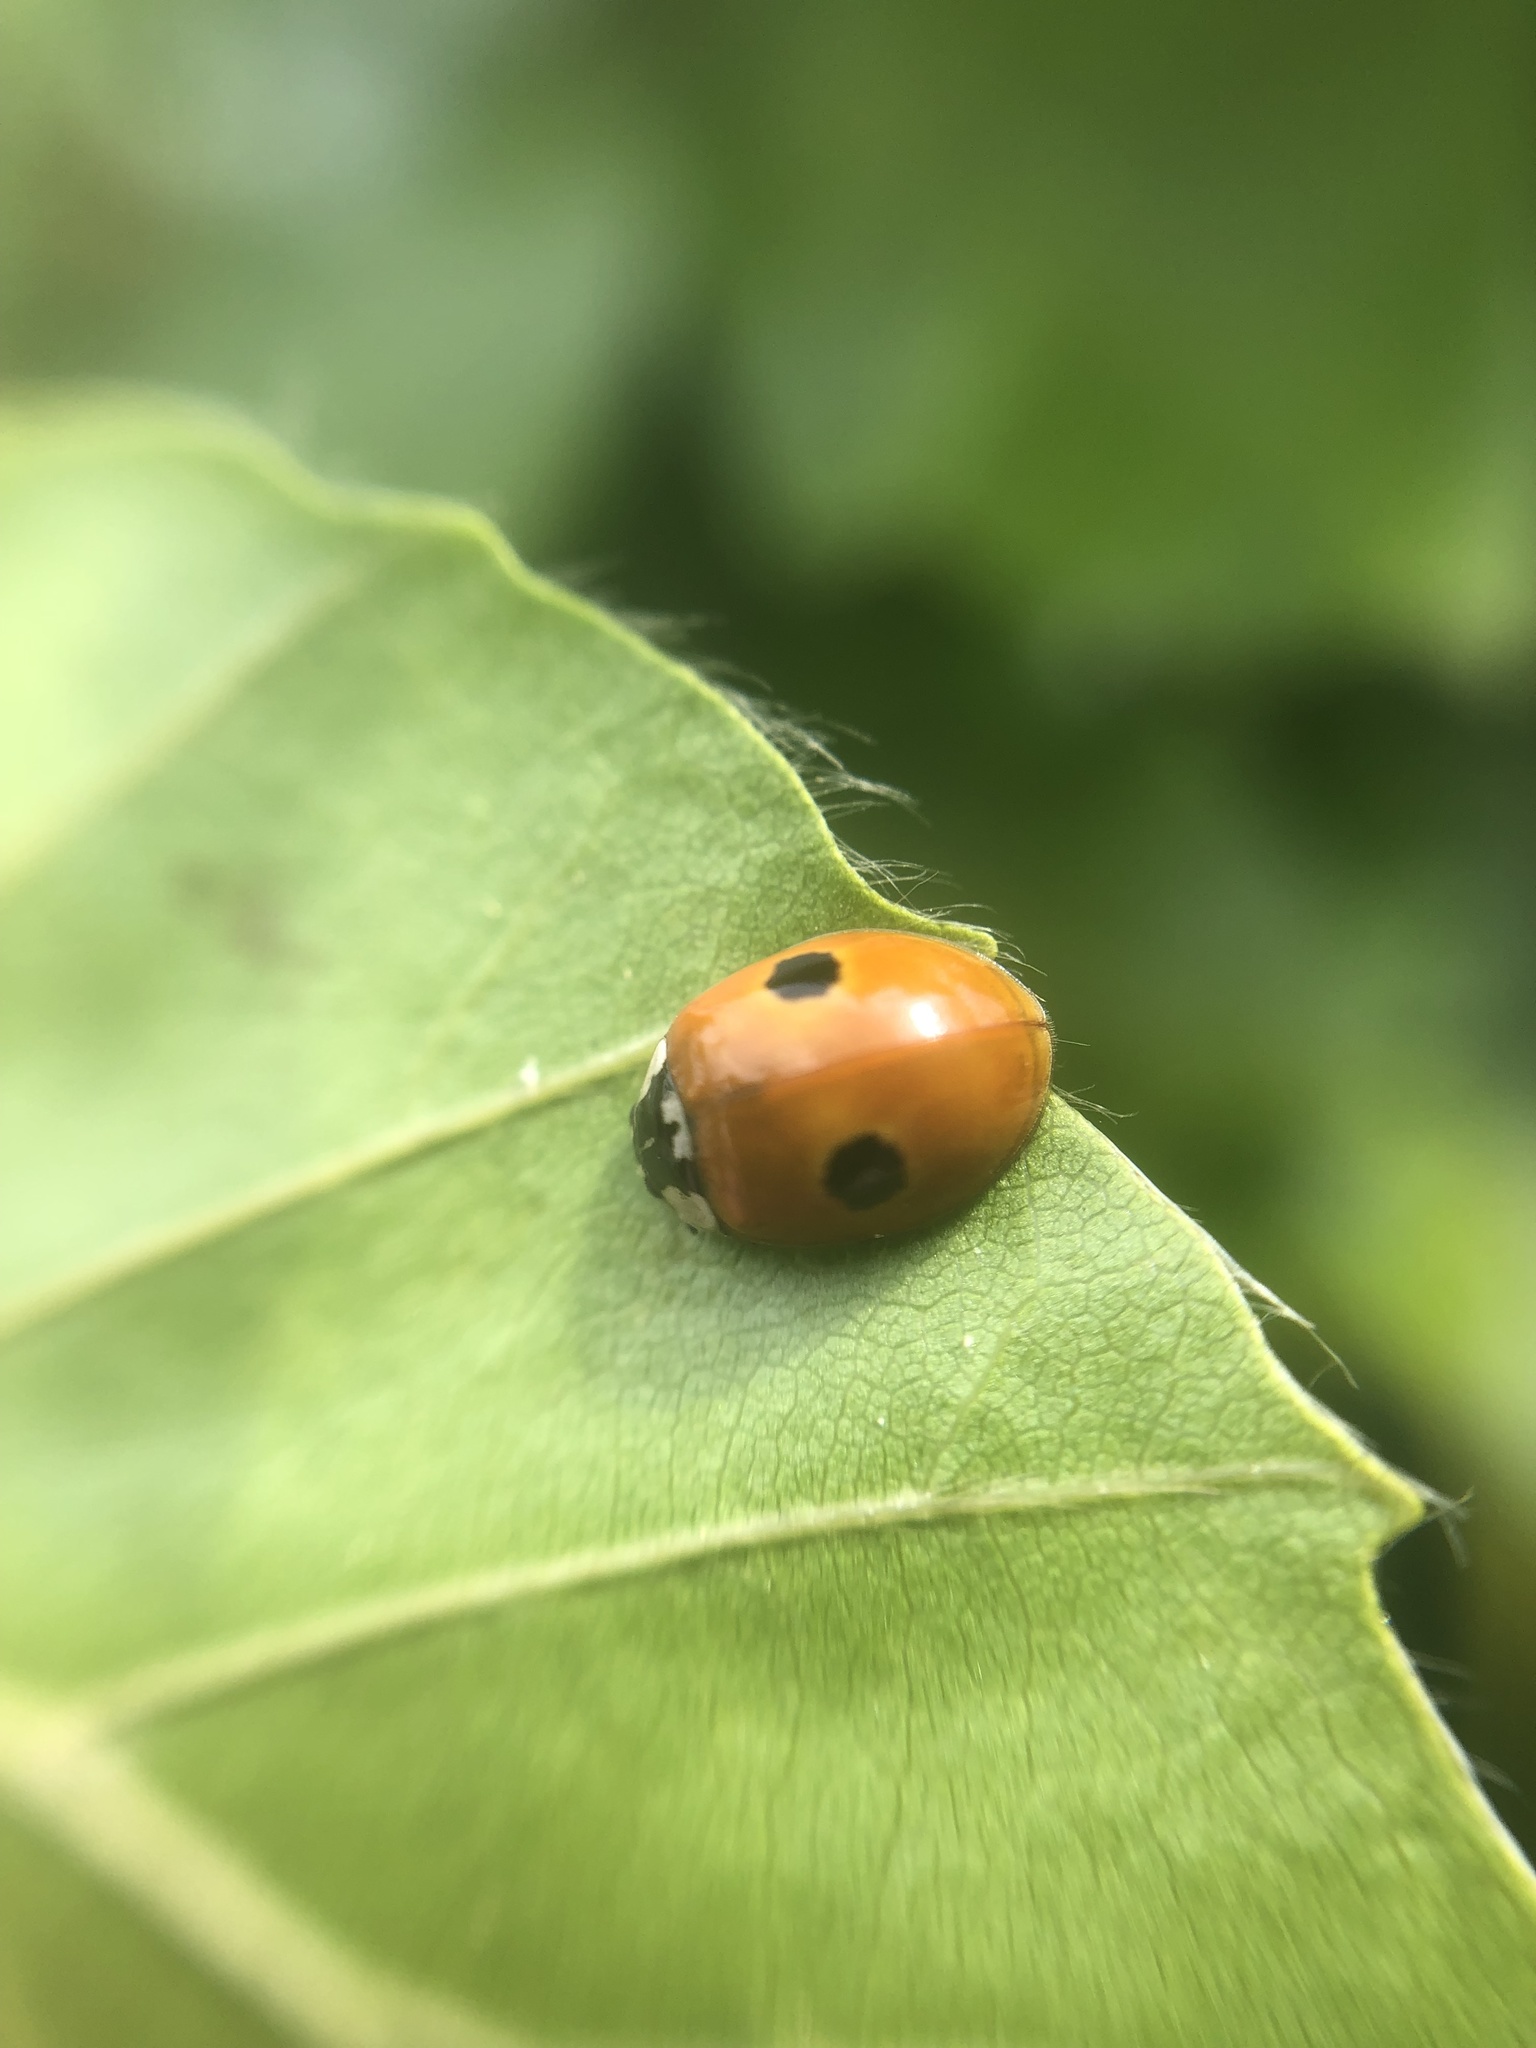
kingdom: Animalia
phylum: Arthropoda
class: Insecta
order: Coleoptera
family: Coccinellidae
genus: Adalia
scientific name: Adalia bipunctata
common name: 2-spot ladybird
